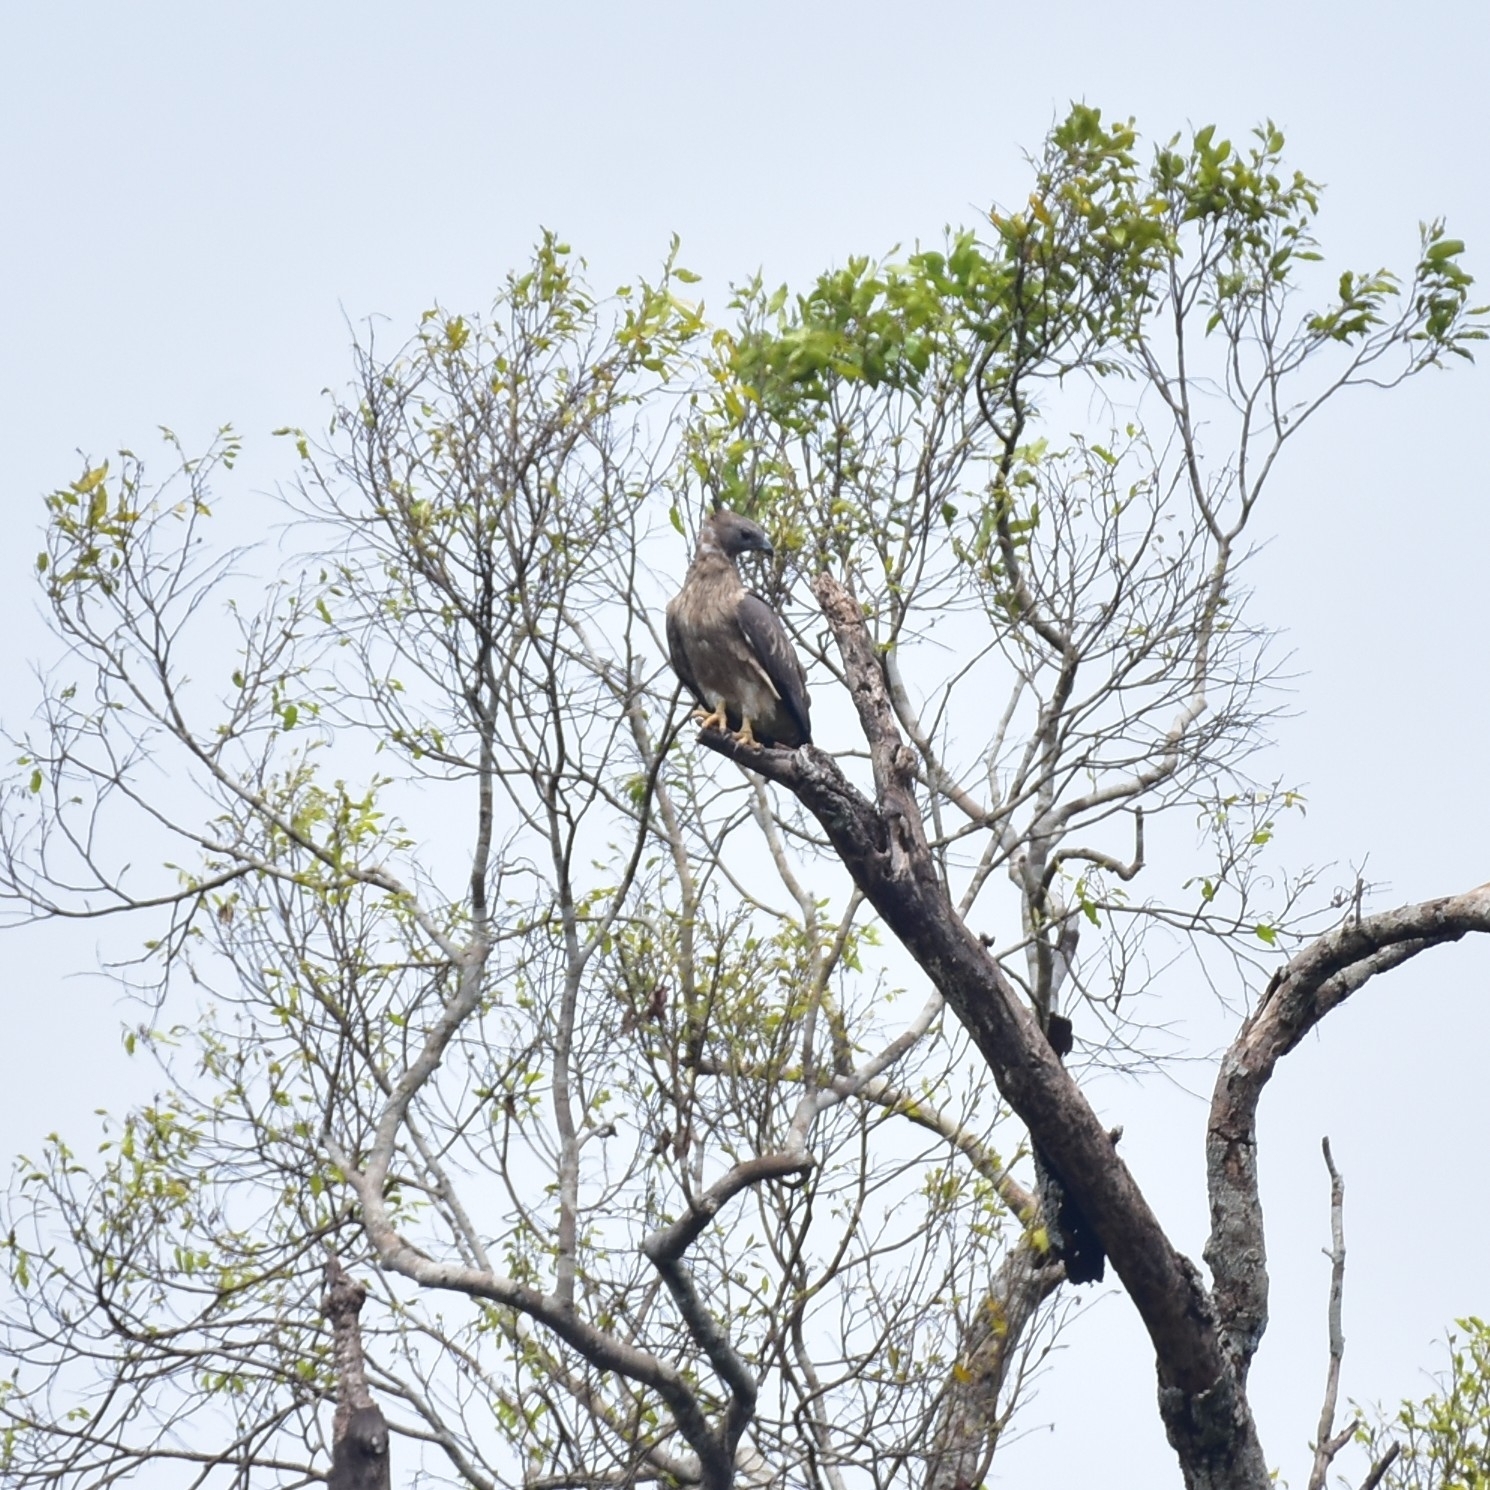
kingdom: Animalia
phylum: Chordata
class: Aves
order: Accipitriformes
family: Accipitridae
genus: Pernis
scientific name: Pernis ptilorhynchus
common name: Crested honey buzzard
